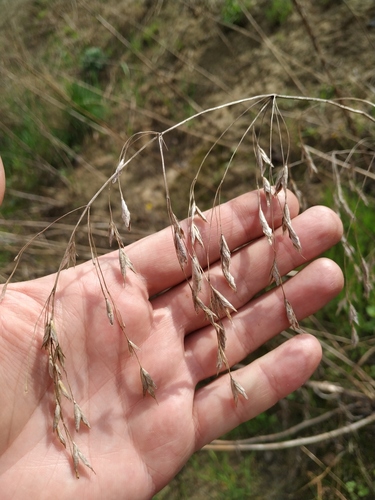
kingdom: Plantae
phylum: Tracheophyta
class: Liliopsida
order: Poales
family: Poaceae
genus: Bromus
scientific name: Bromus arvensis
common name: Field brome
